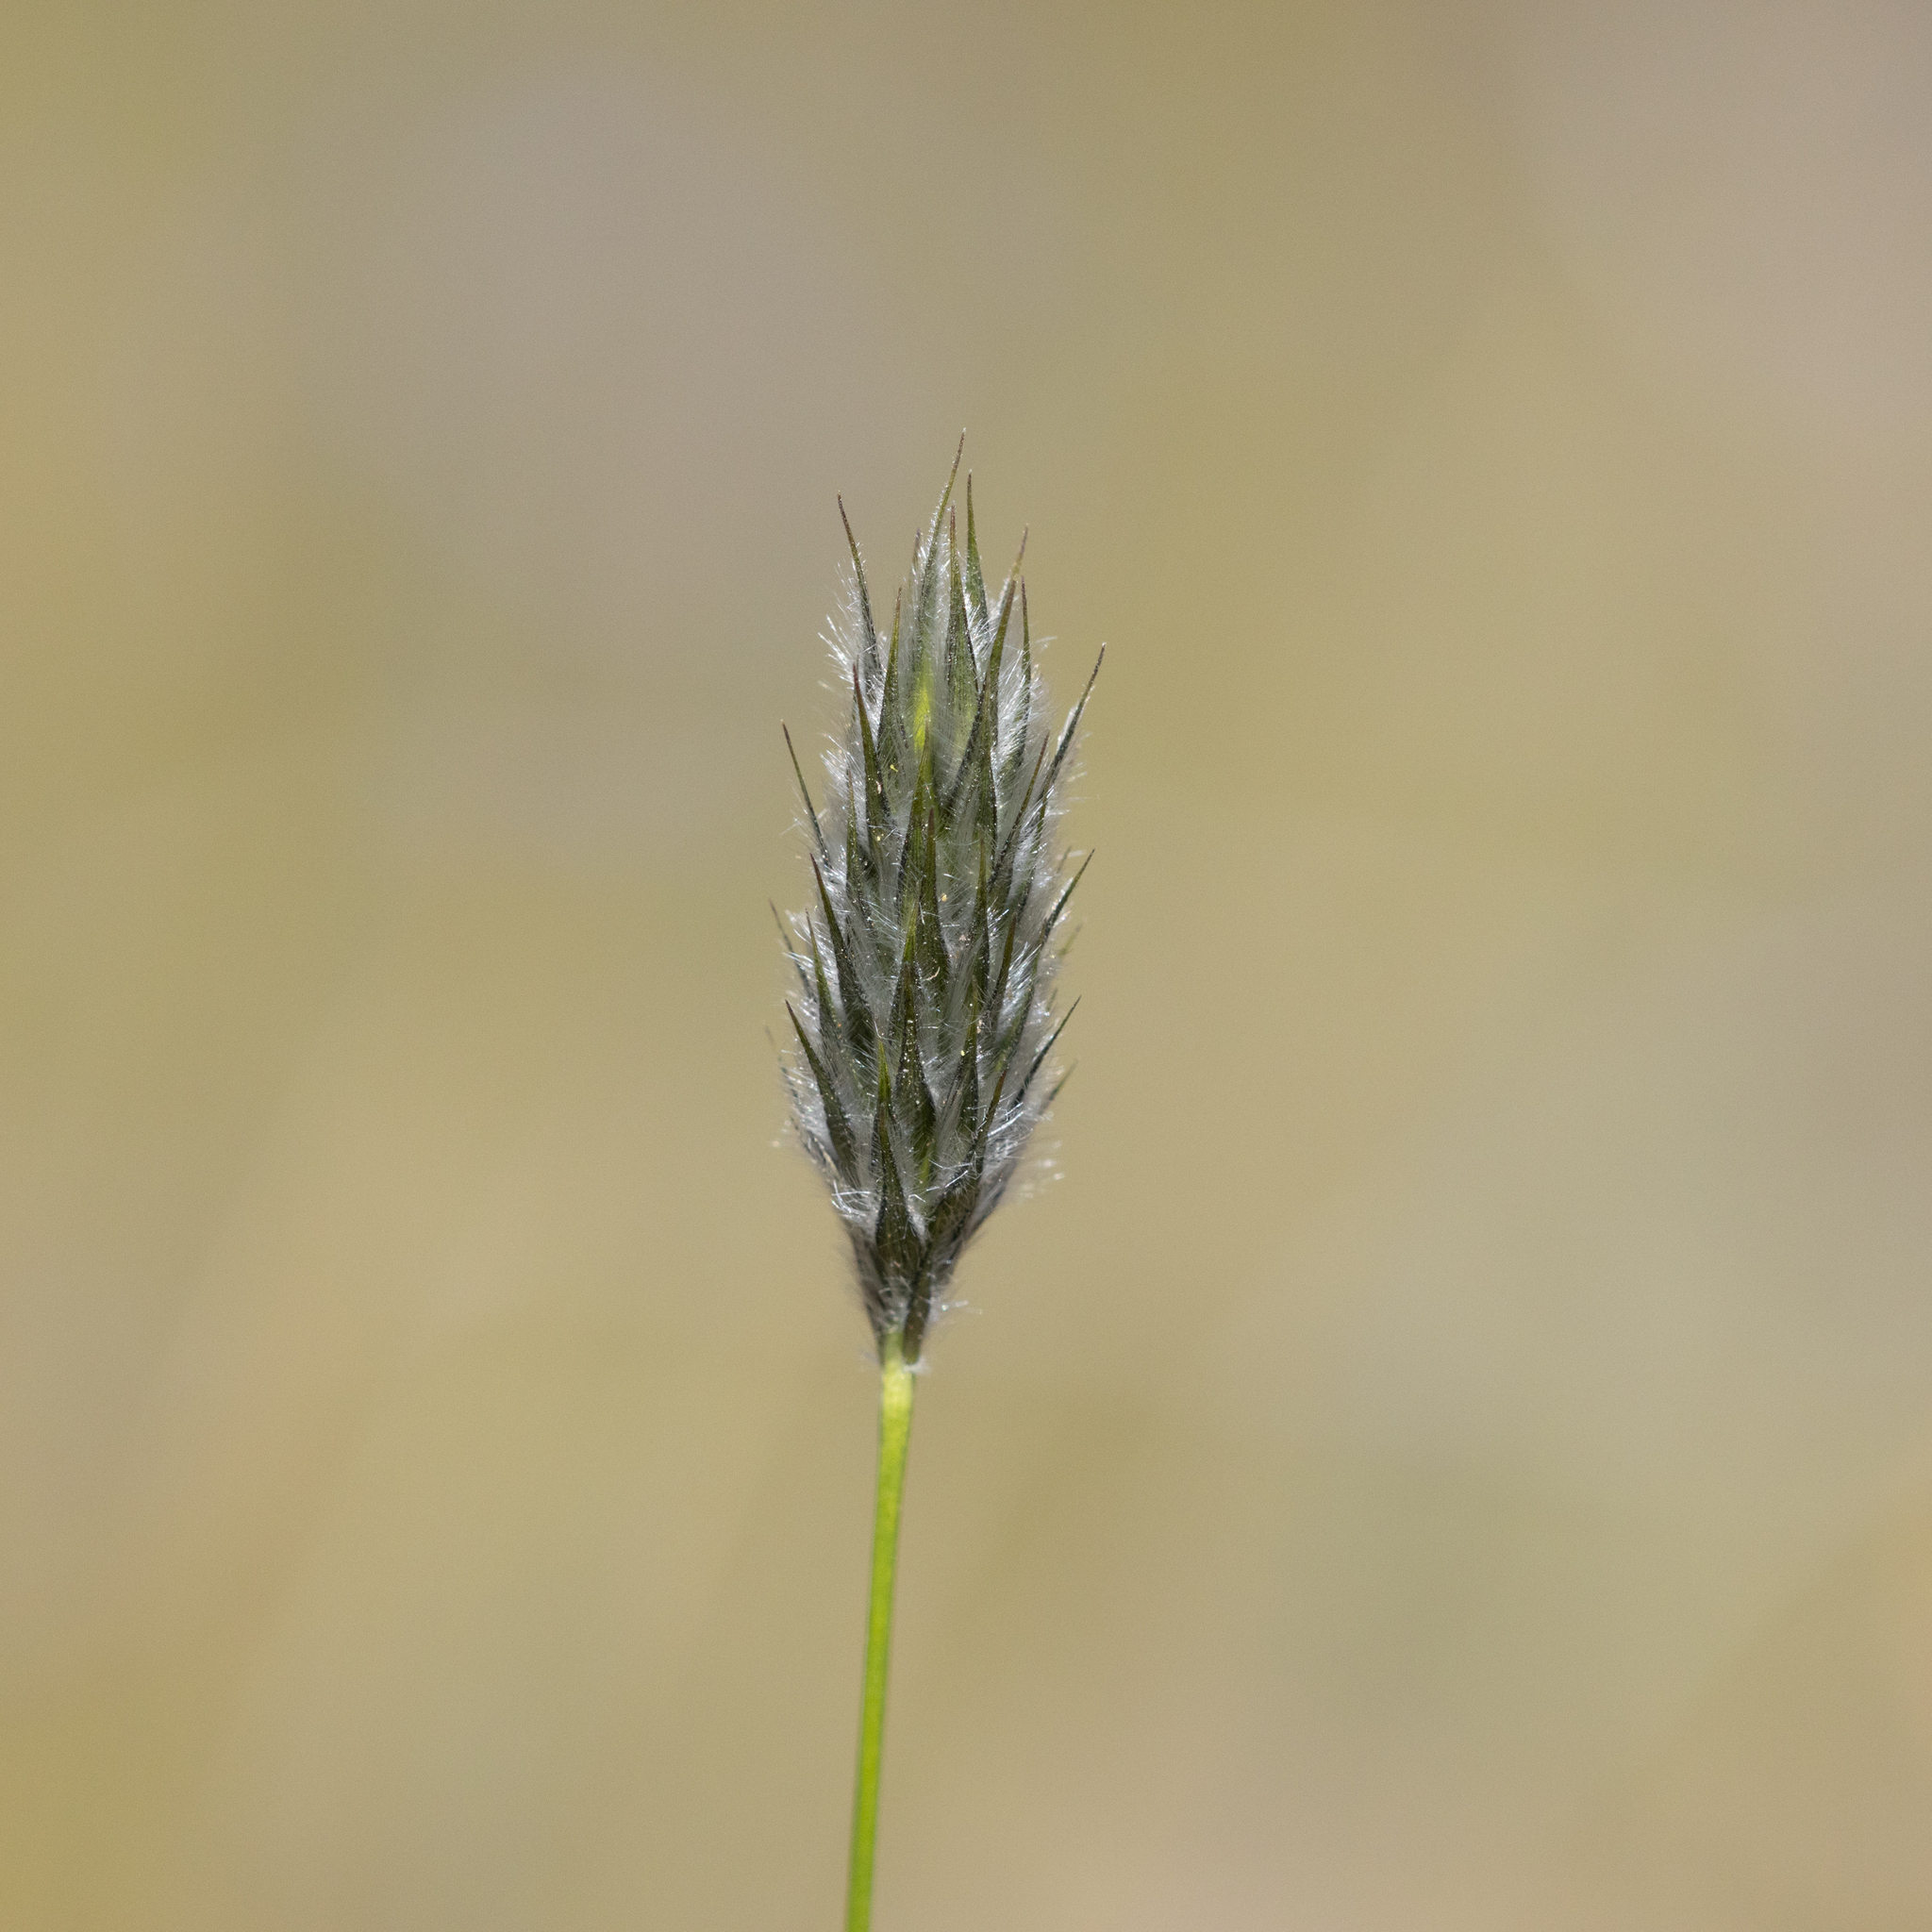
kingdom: Plantae
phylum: Tracheophyta
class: Liliopsida
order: Poales
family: Poaceae
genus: Neurachne
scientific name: Neurachne alopecuroidea
